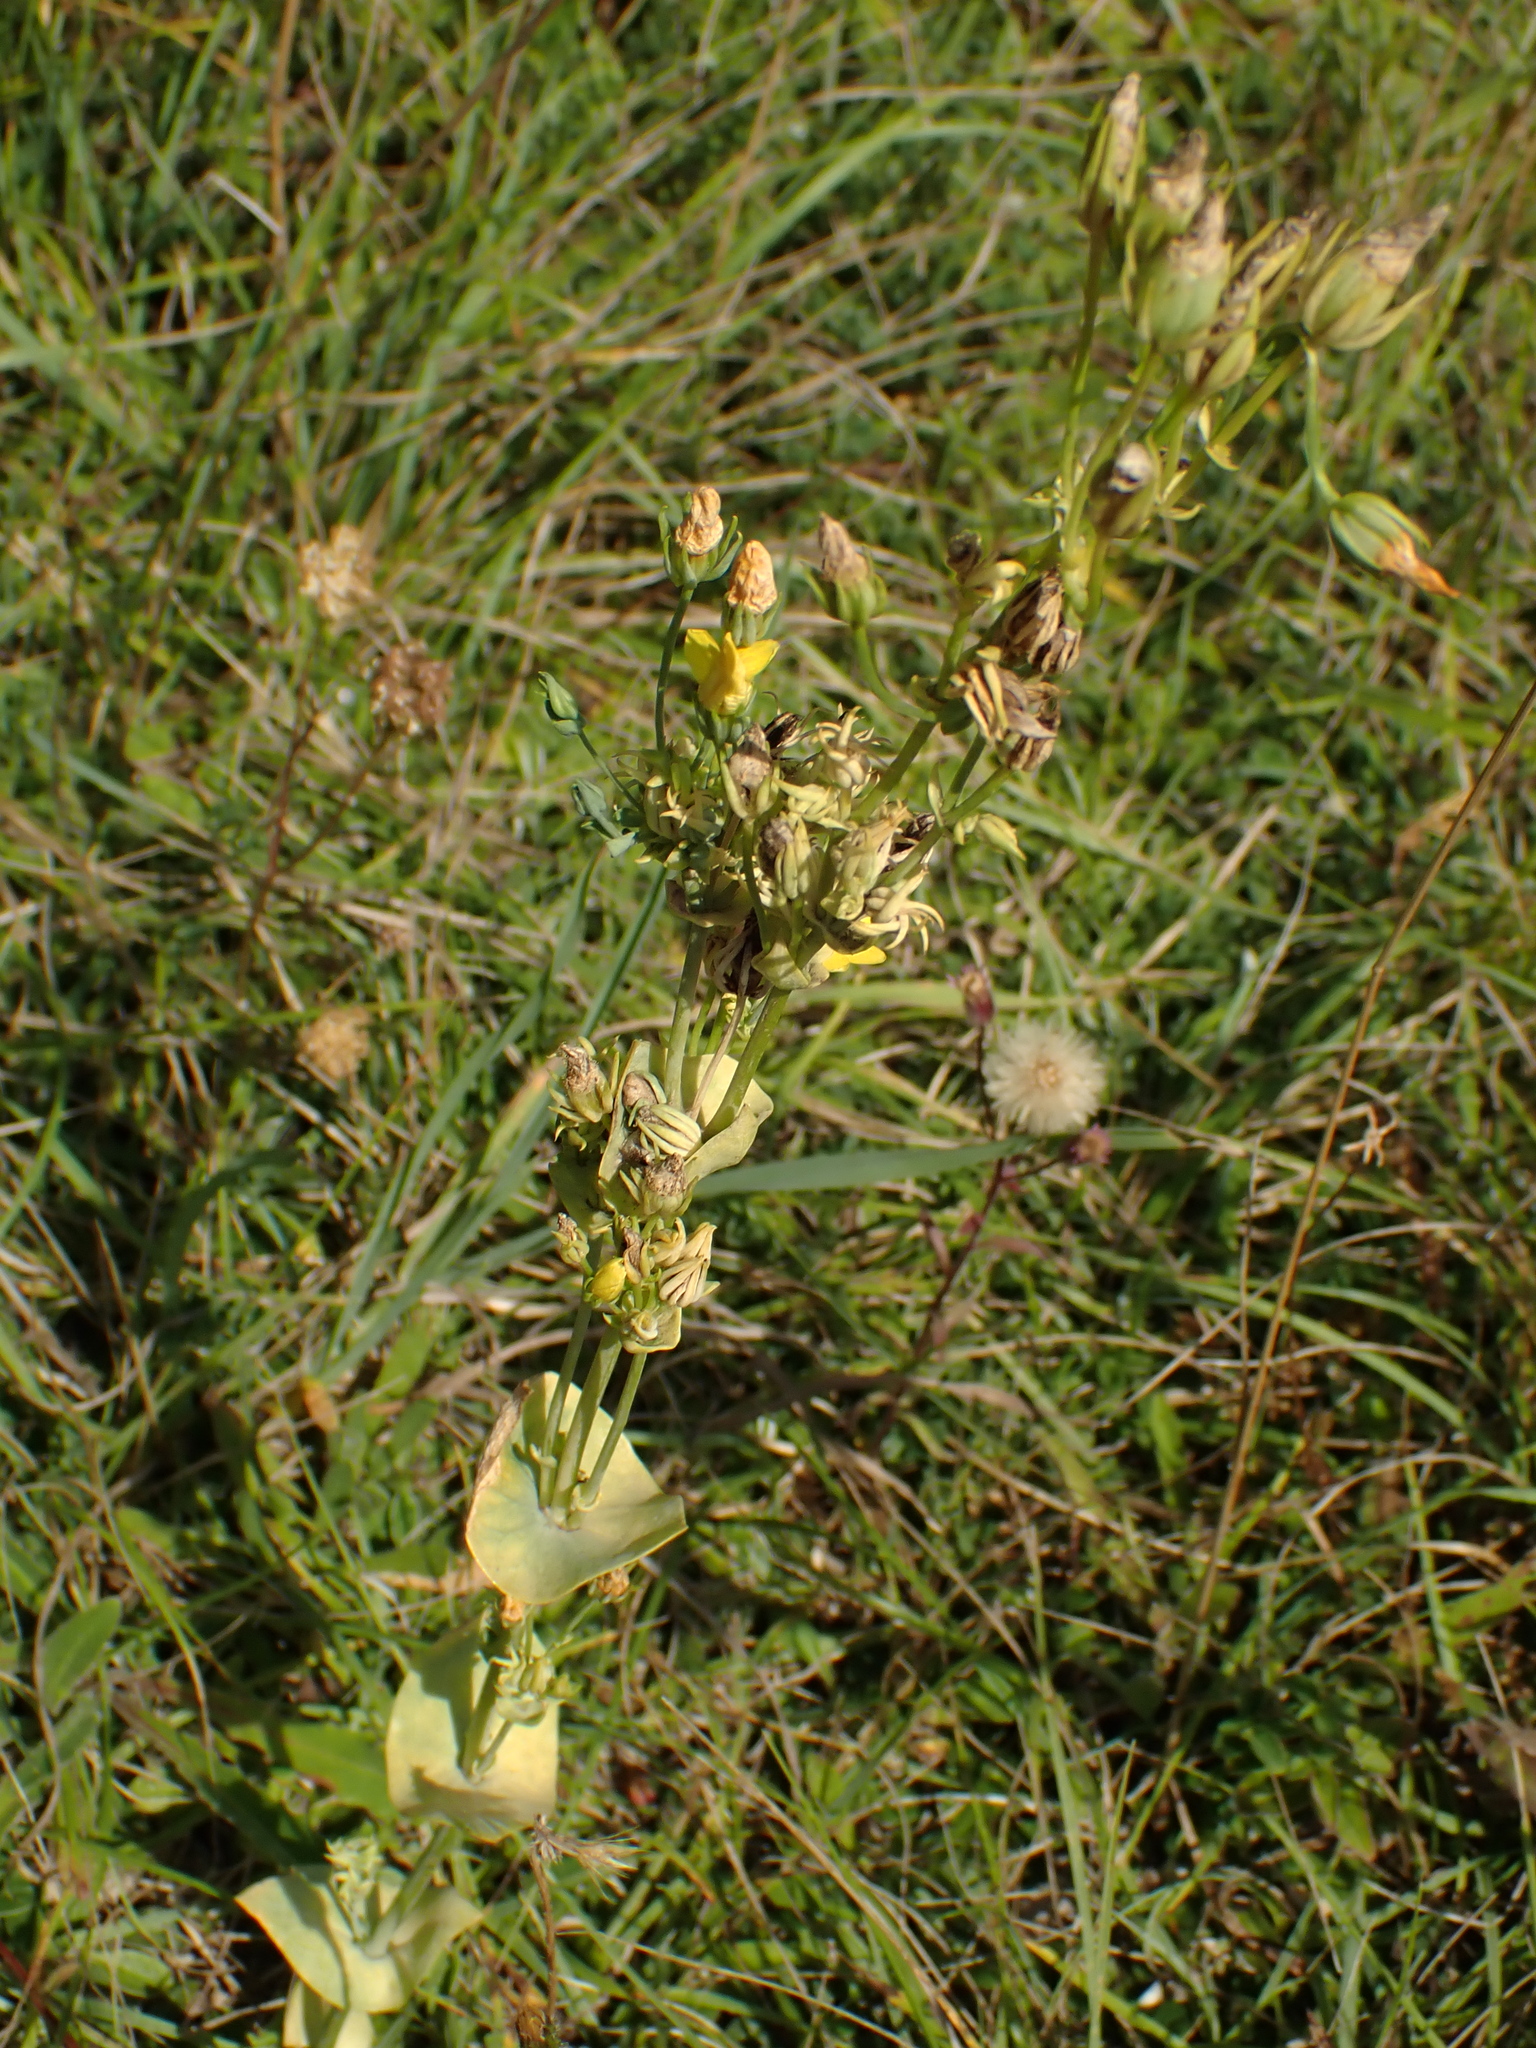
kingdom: Plantae
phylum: Tracheophyta
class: Magnoliopsida
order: Gentianales
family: Gentianaceae
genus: Blackstonia
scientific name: Blackstonia perfoliata
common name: Yellow-wort
